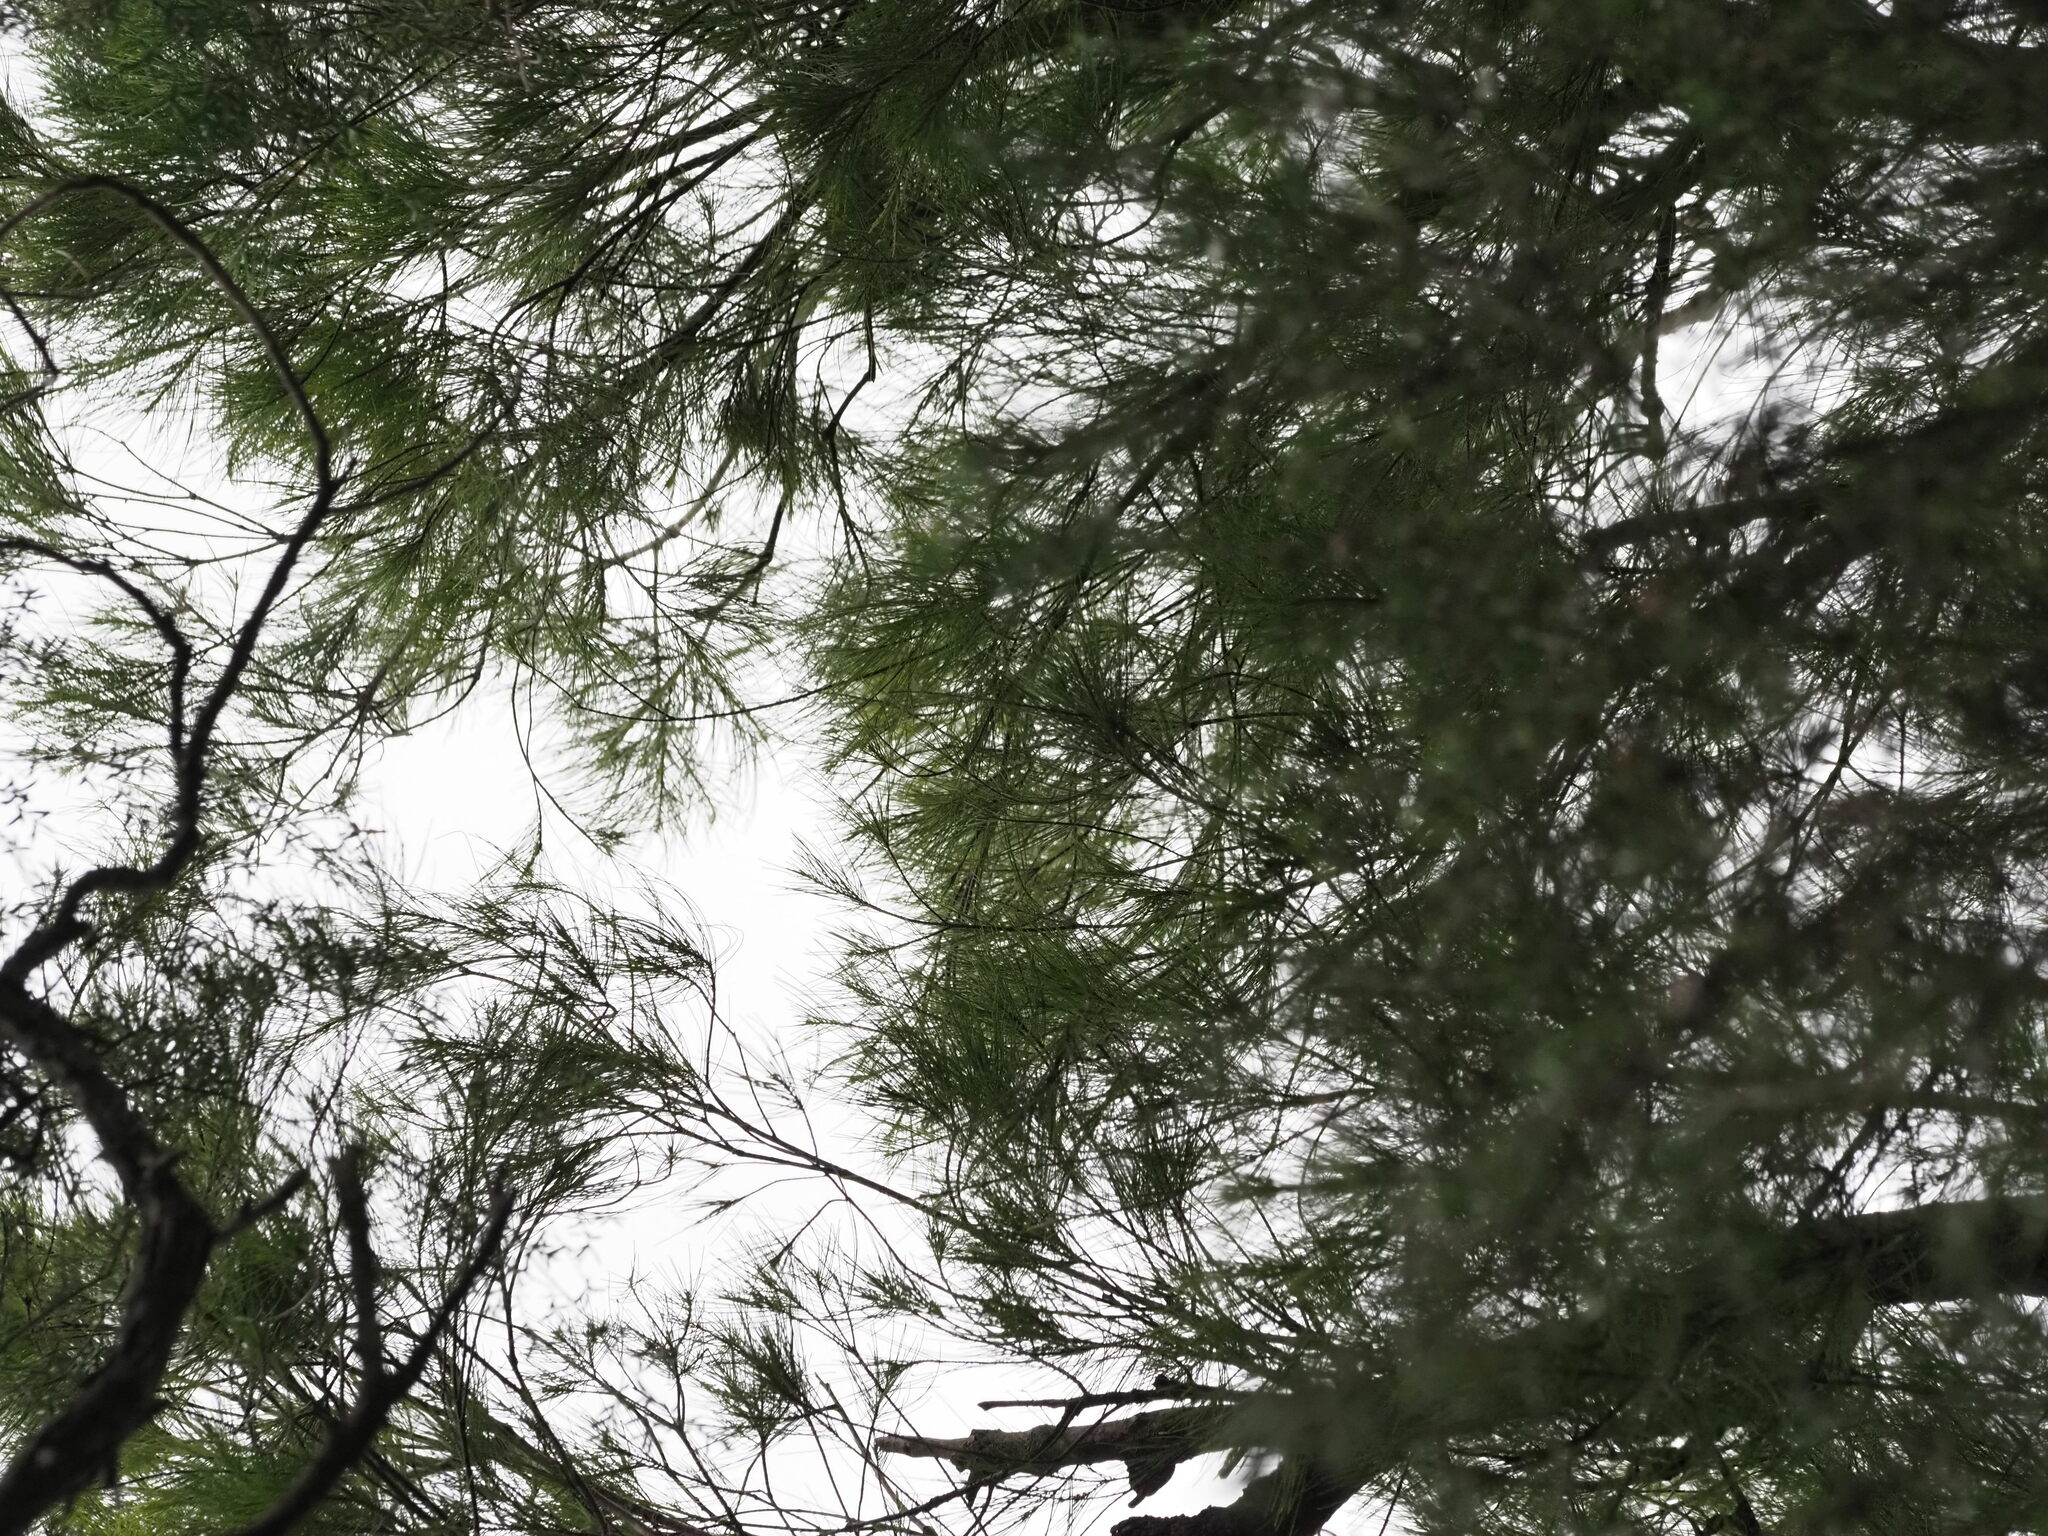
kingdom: Plantae
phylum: Tracheophyta
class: Magnoliopsida
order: Fagales
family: Casuarinaceae
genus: Casuarina
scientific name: Casuarina equisetifolia
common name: Beach sheoak
